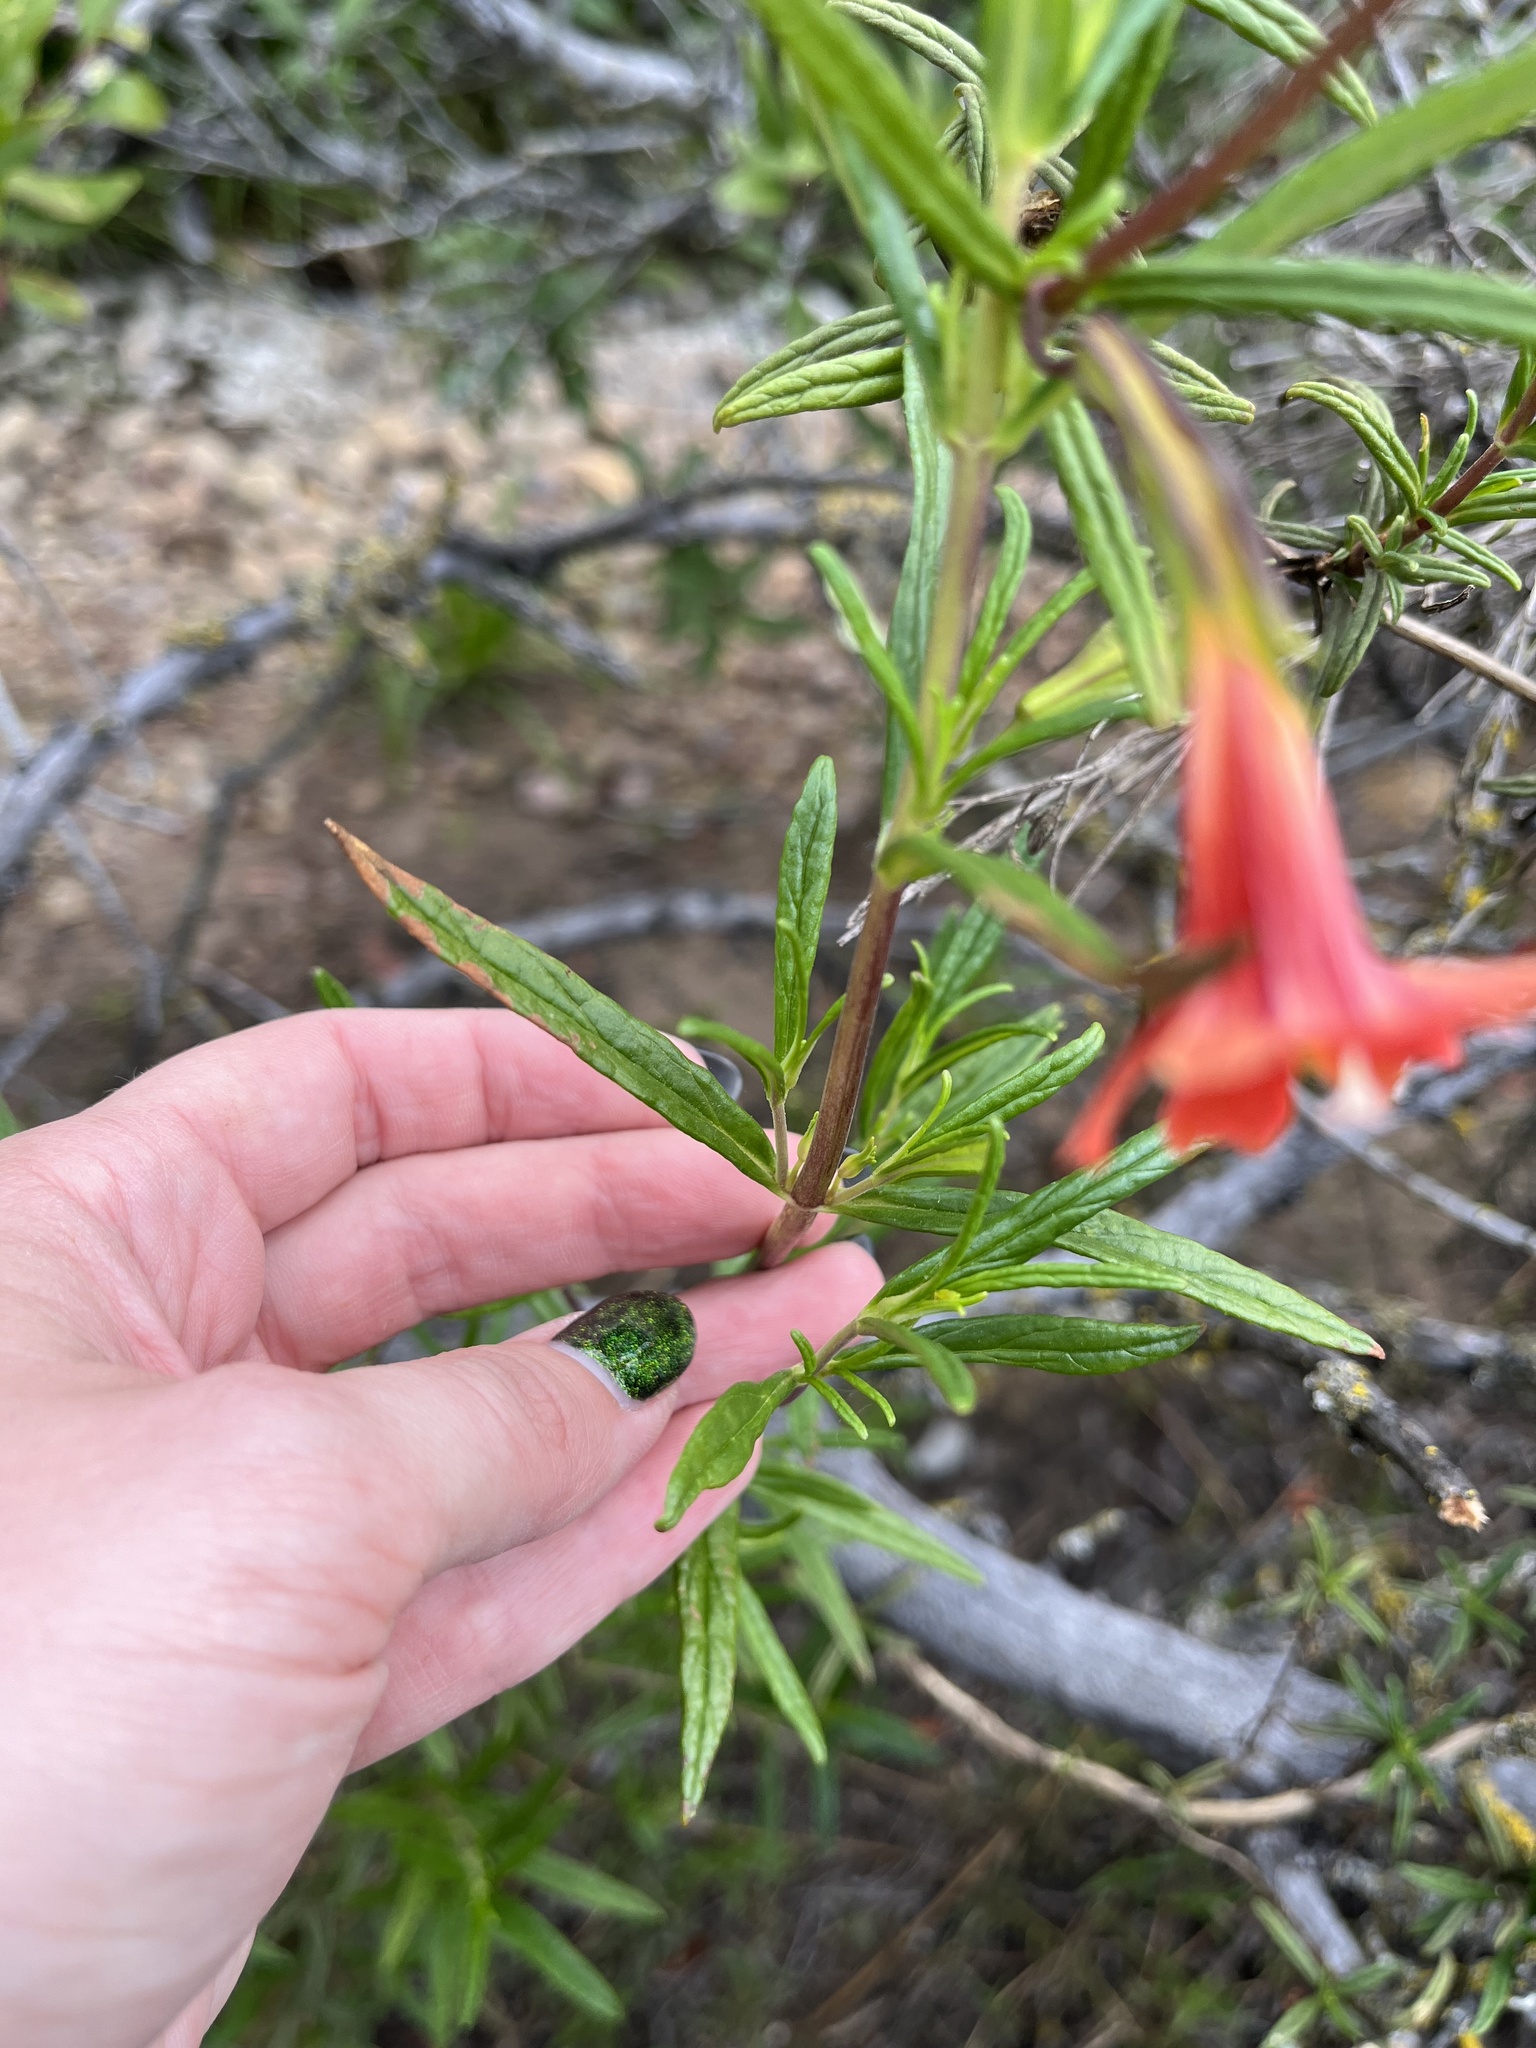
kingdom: Plantae
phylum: Tracheophyta
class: Magnoliopsida
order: Lamiales
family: Phrymaceae
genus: Diplacus
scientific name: Diplacus puniceus
